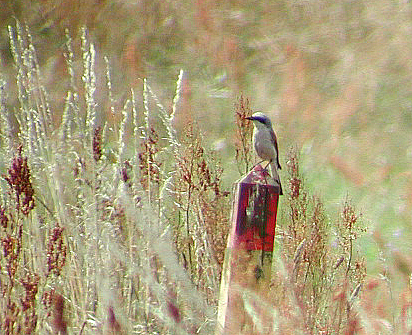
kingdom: Animalia
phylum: Chordata
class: Aves
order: Passeriformes
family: Laniidae
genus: Lanius
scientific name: Lanius collurio
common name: Red-backed shrike
